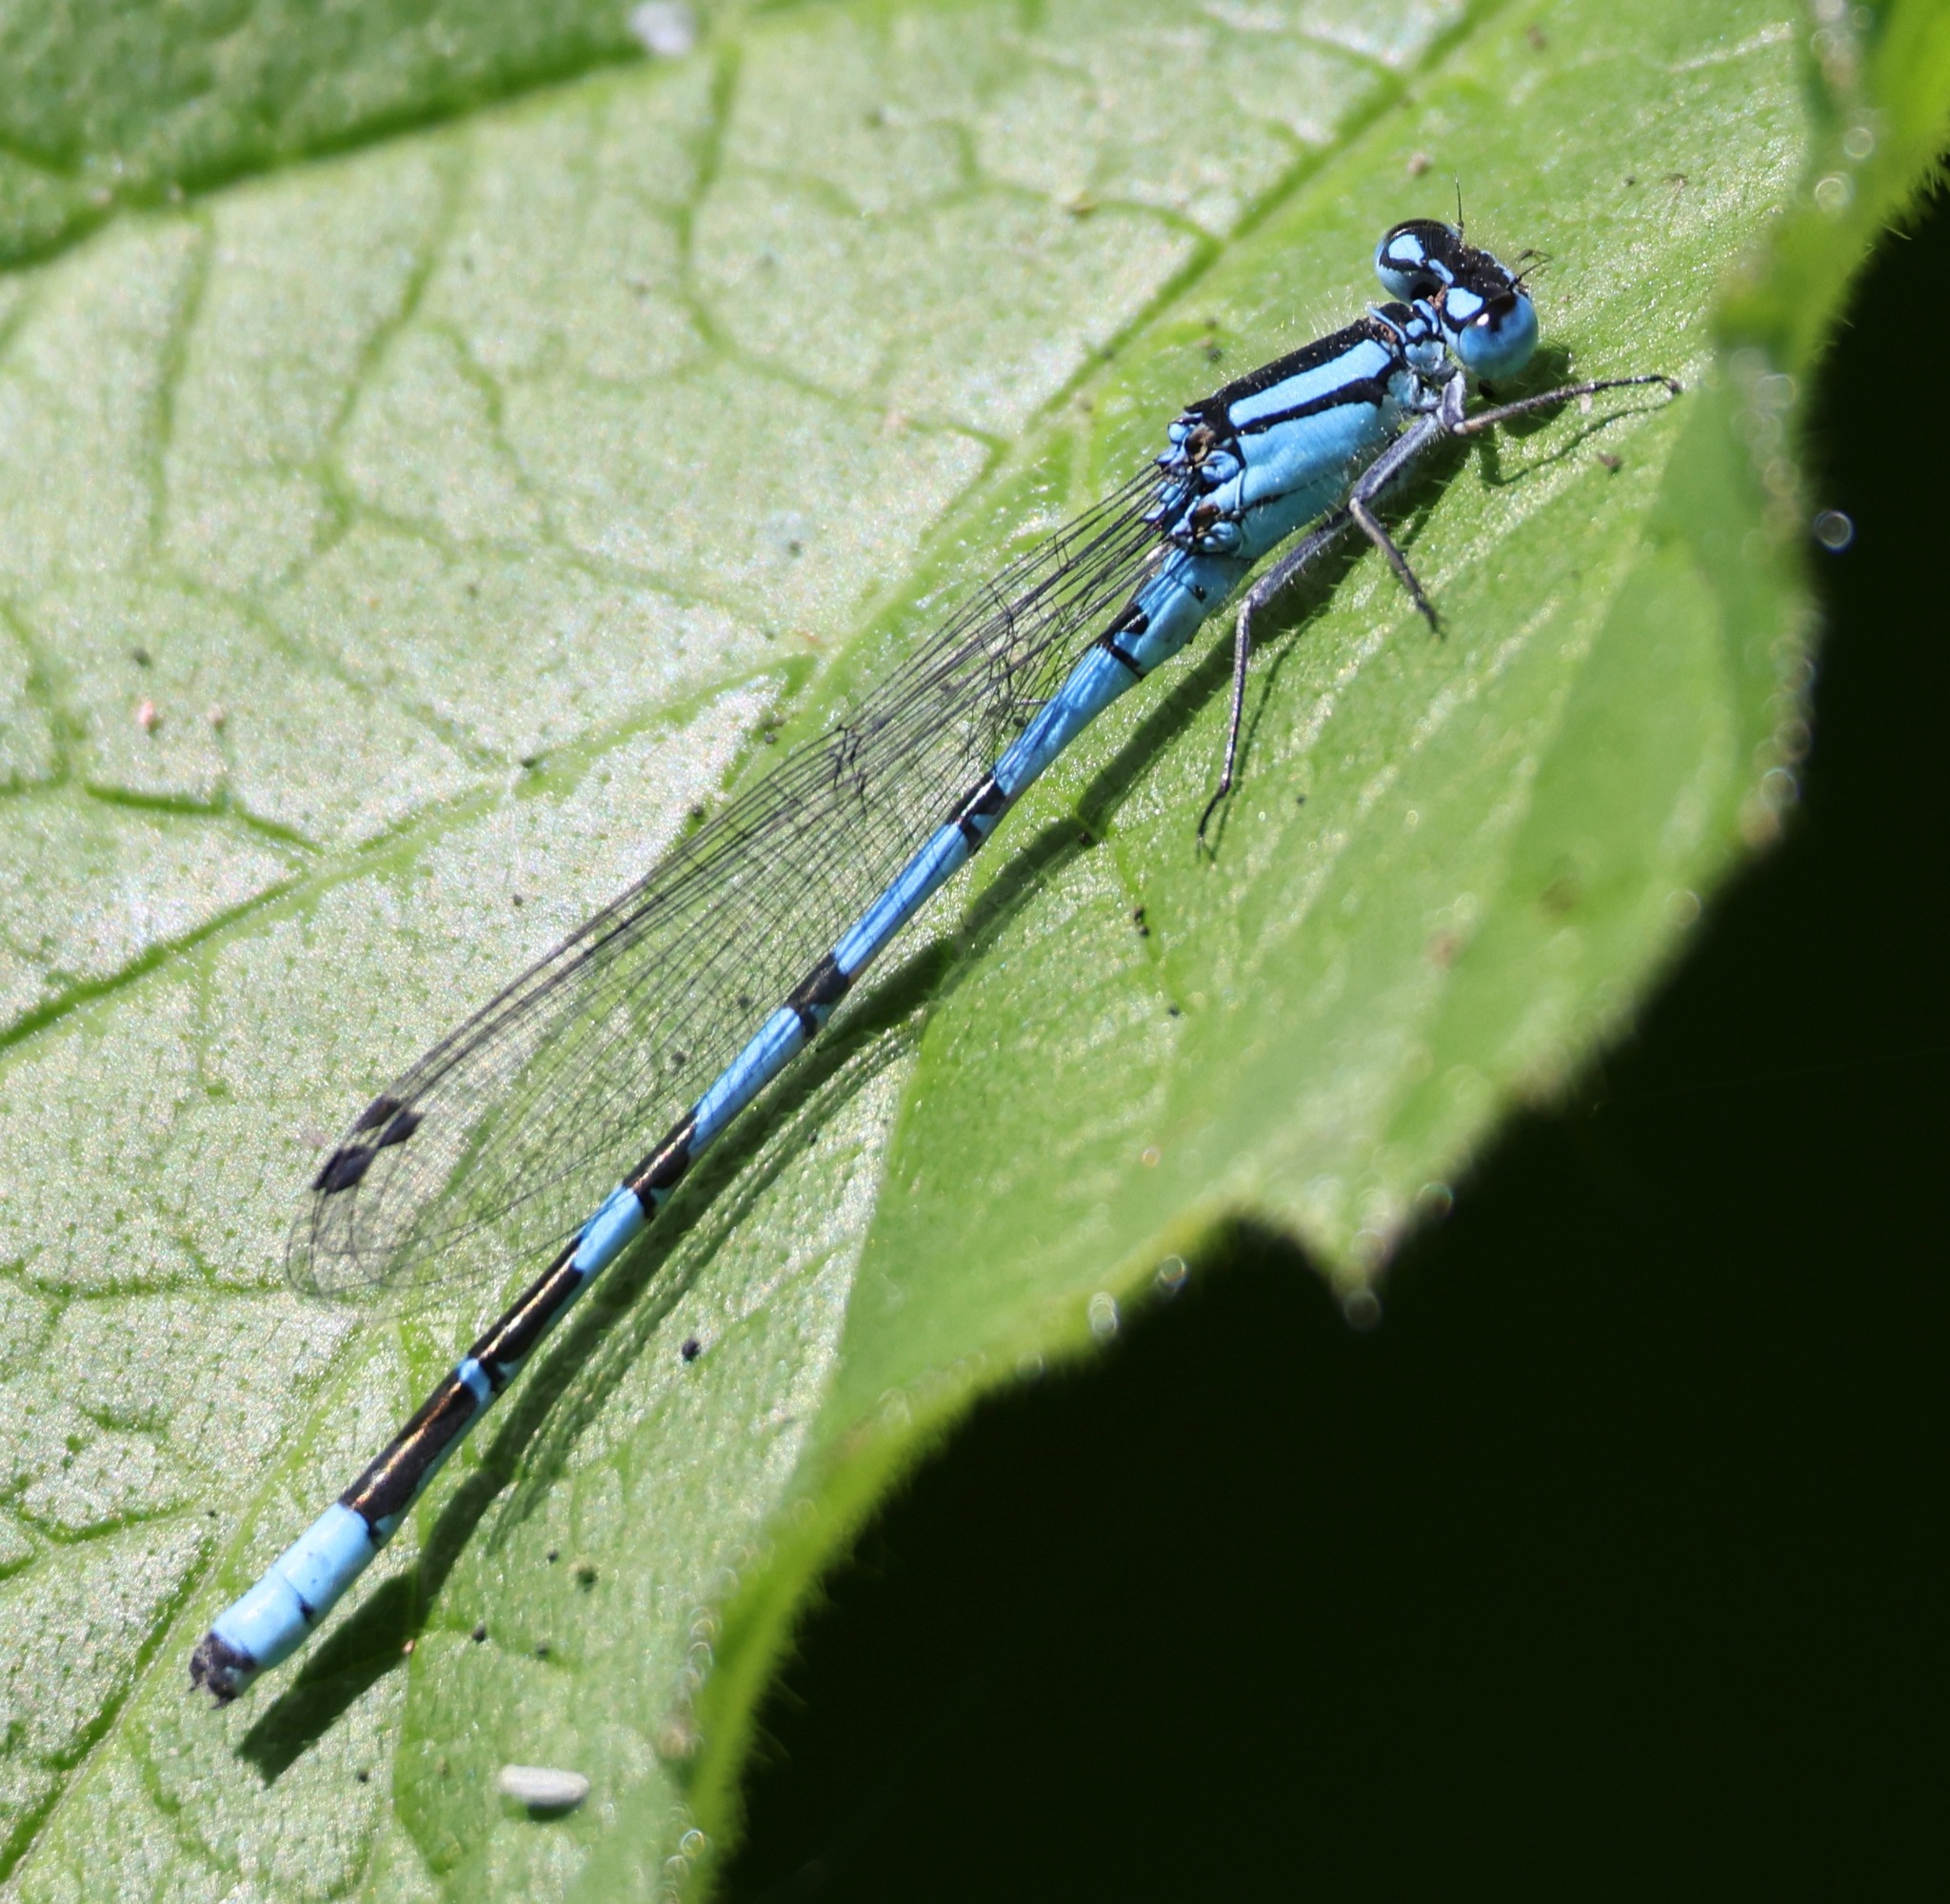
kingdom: Animalia
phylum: Arthropoda
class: Insecta
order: Odonata
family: Coenagrionidae
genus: Enallagma
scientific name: Enallagma cyathigerum
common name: Common blue damselfly
